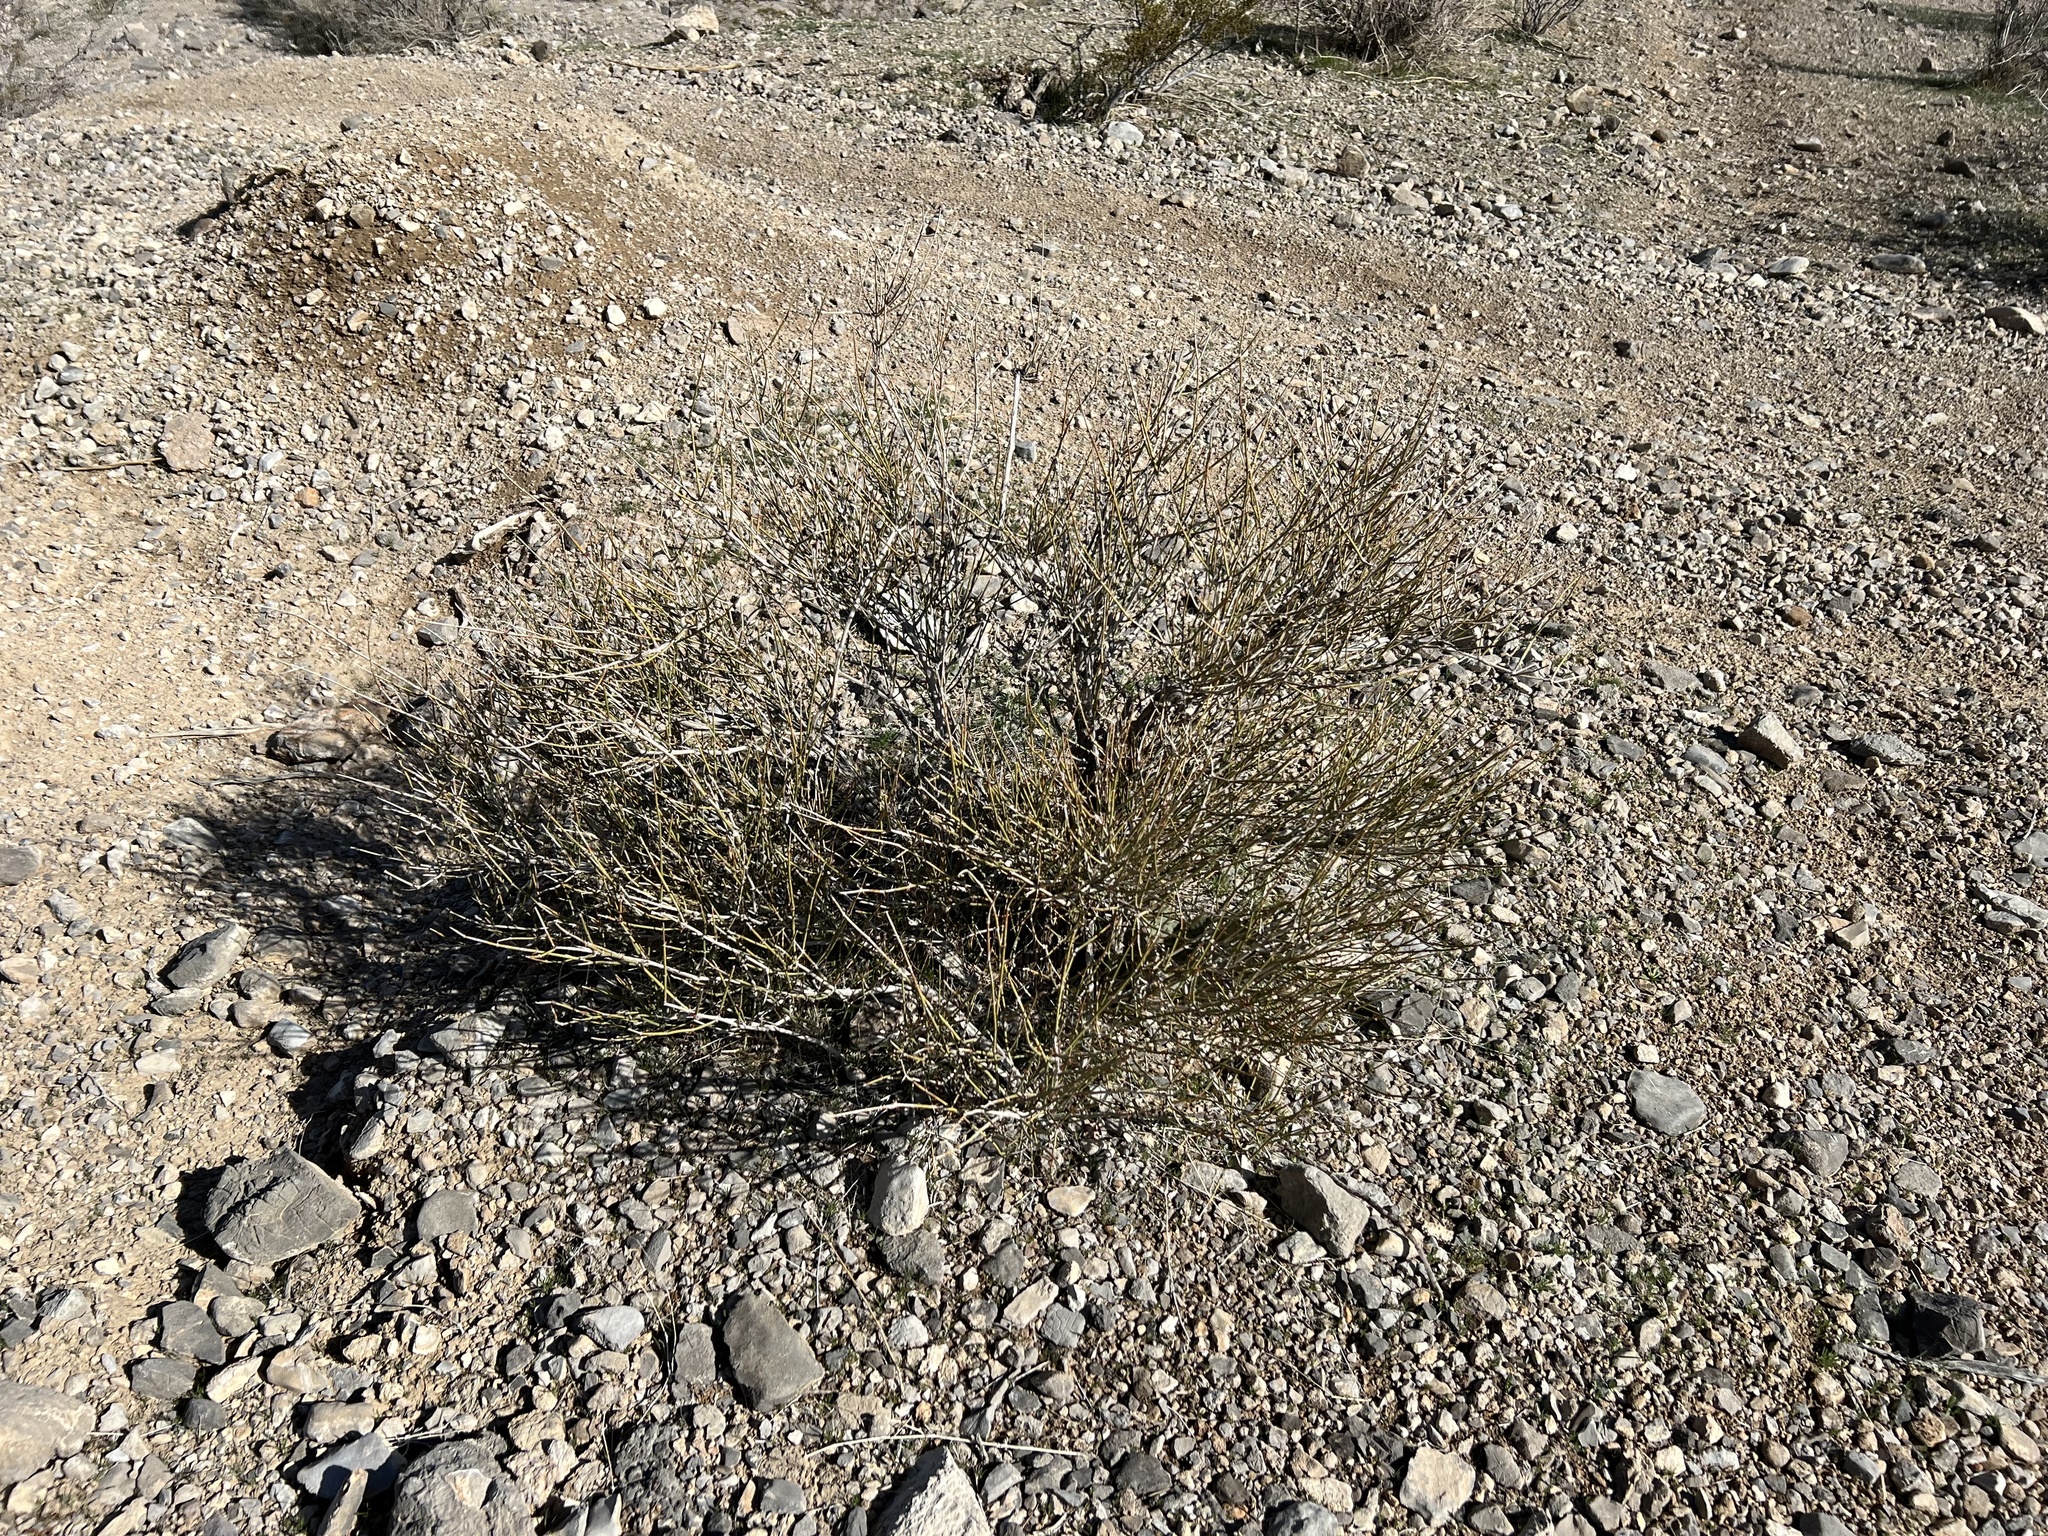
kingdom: Plantae
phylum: Tracheophyta
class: Gnetopsida
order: Ephedrales
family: Ephedraceae
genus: Ephedra
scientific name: Ephedra nevadensis
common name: Gray ephedra
